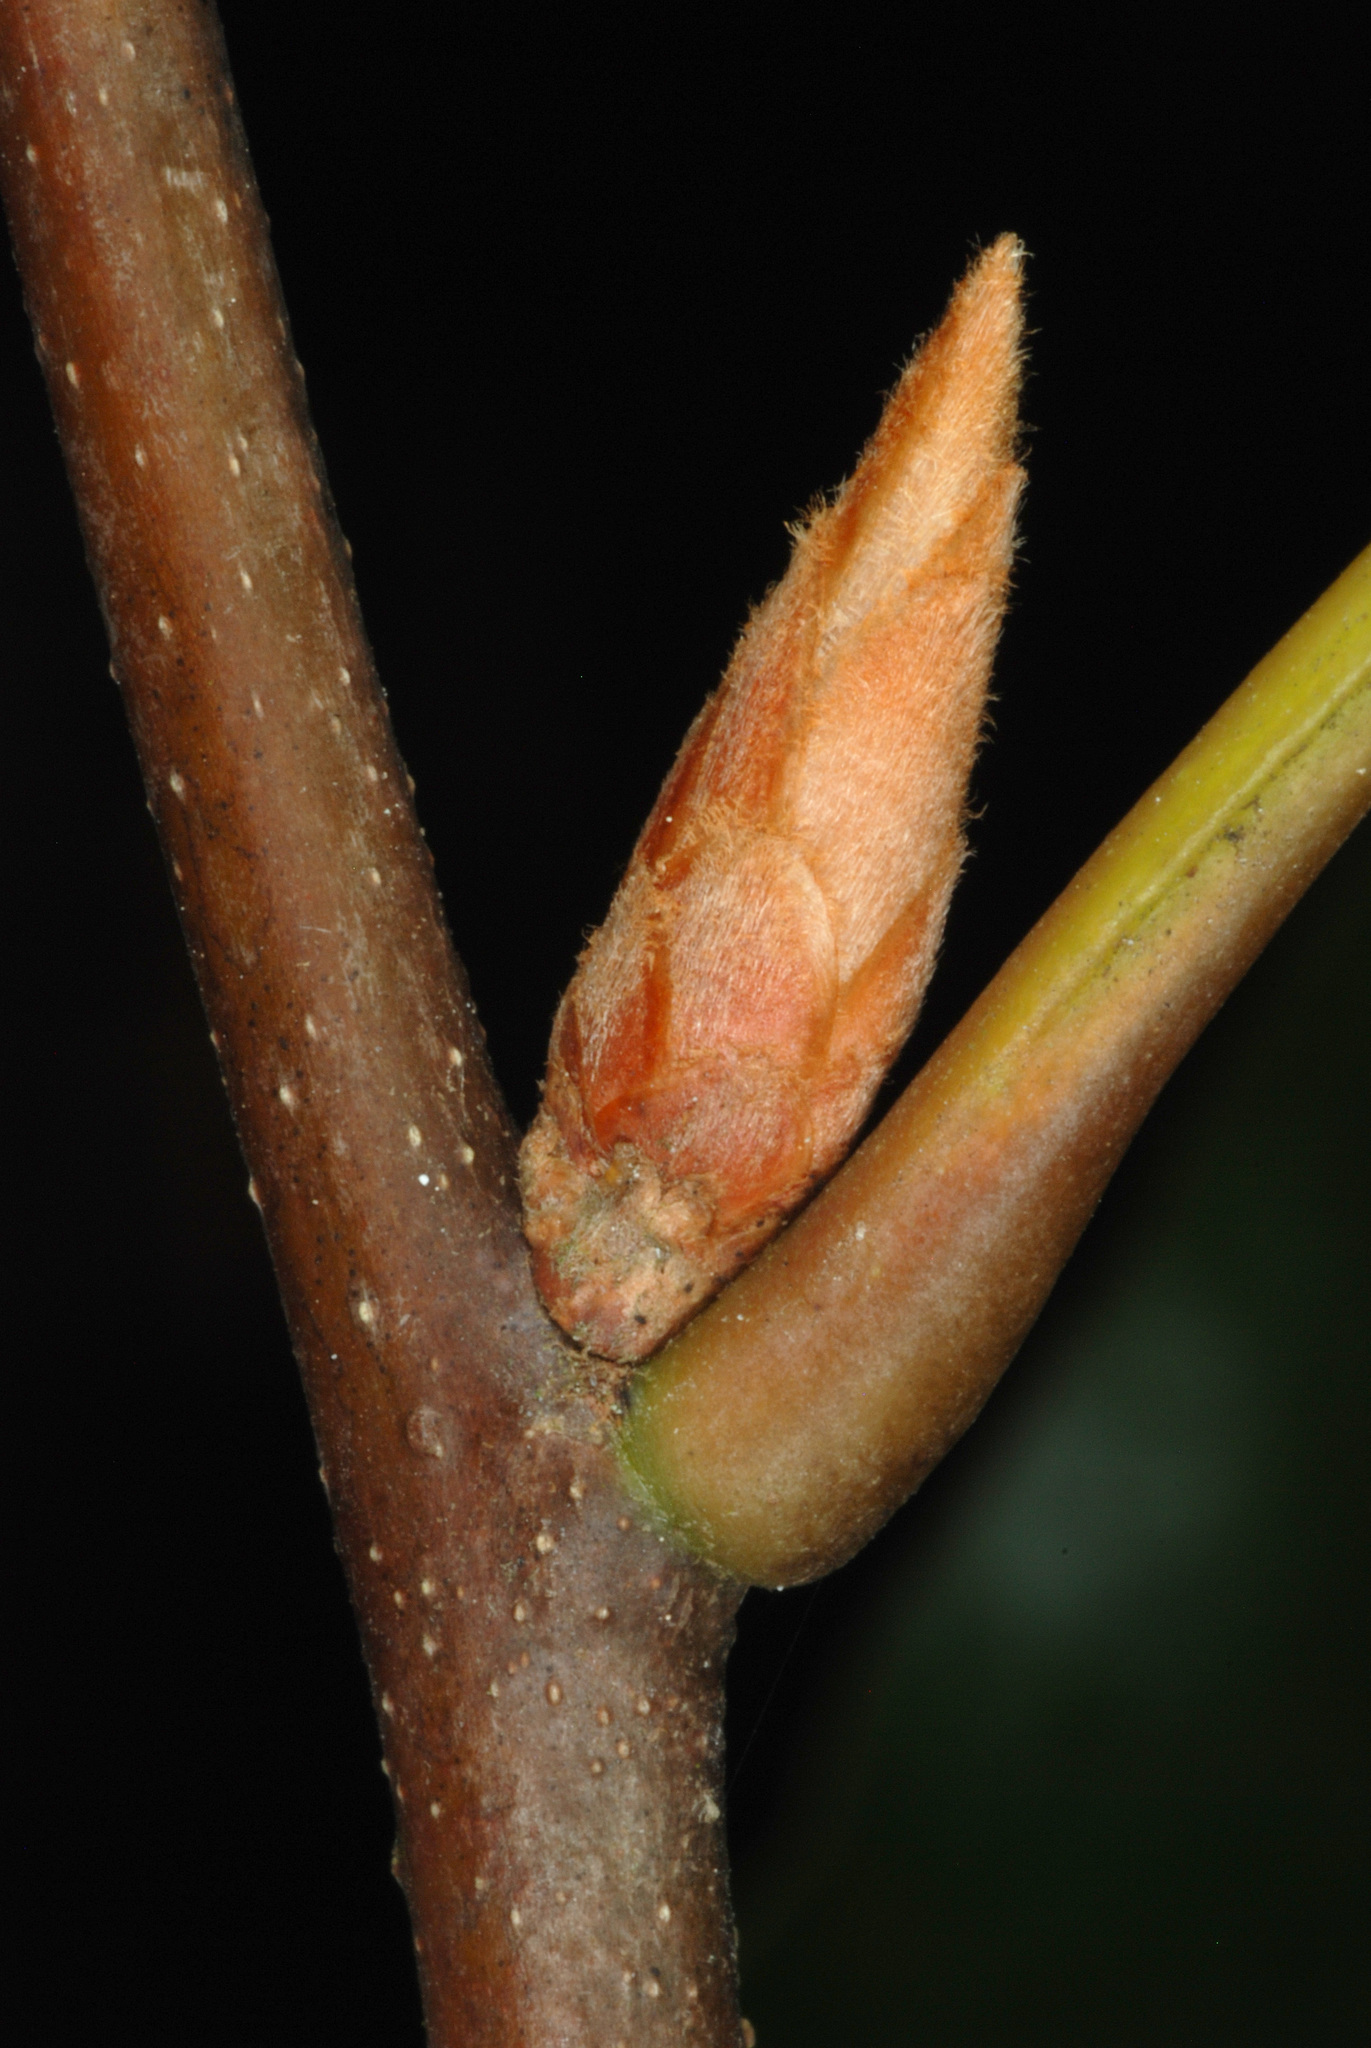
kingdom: Plantae
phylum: Tracheophyta
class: Magnoliopsida
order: Fagales
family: Fagaceae
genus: Quercus
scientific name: Quercus laevis
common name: Turkey oak
